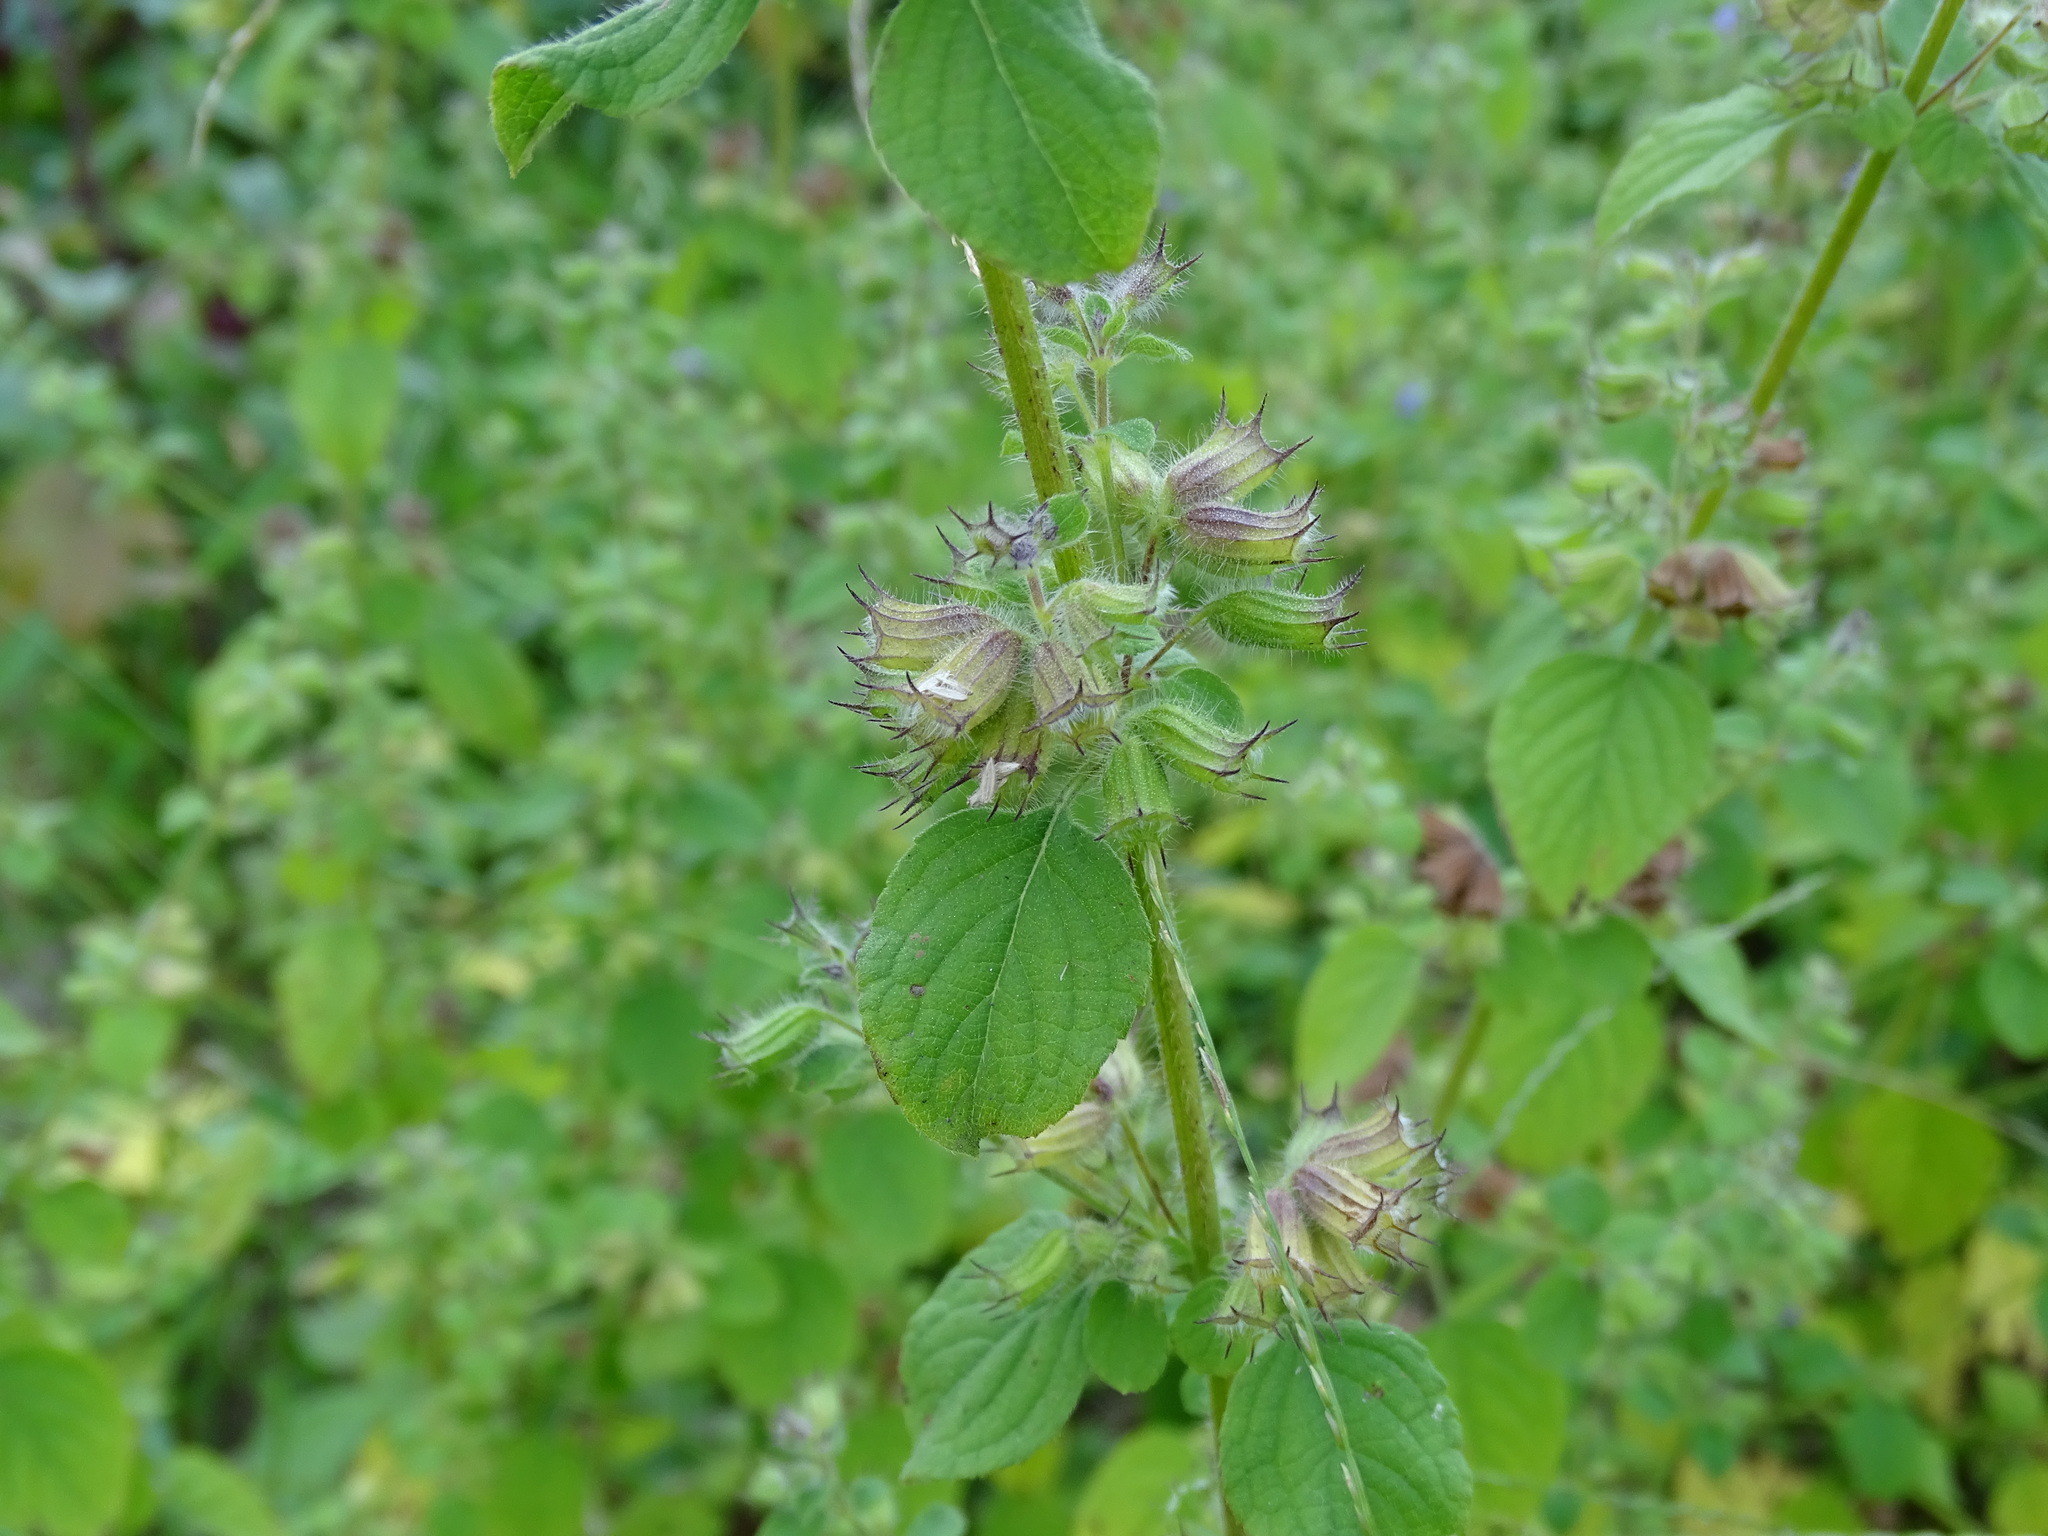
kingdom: Plantae
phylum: Tracheophyta
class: Magnoliopsida
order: Lamiales
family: Lamiaceae
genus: Mesosphaerum
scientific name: Mesosphaerum suaveolens
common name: Pignut
